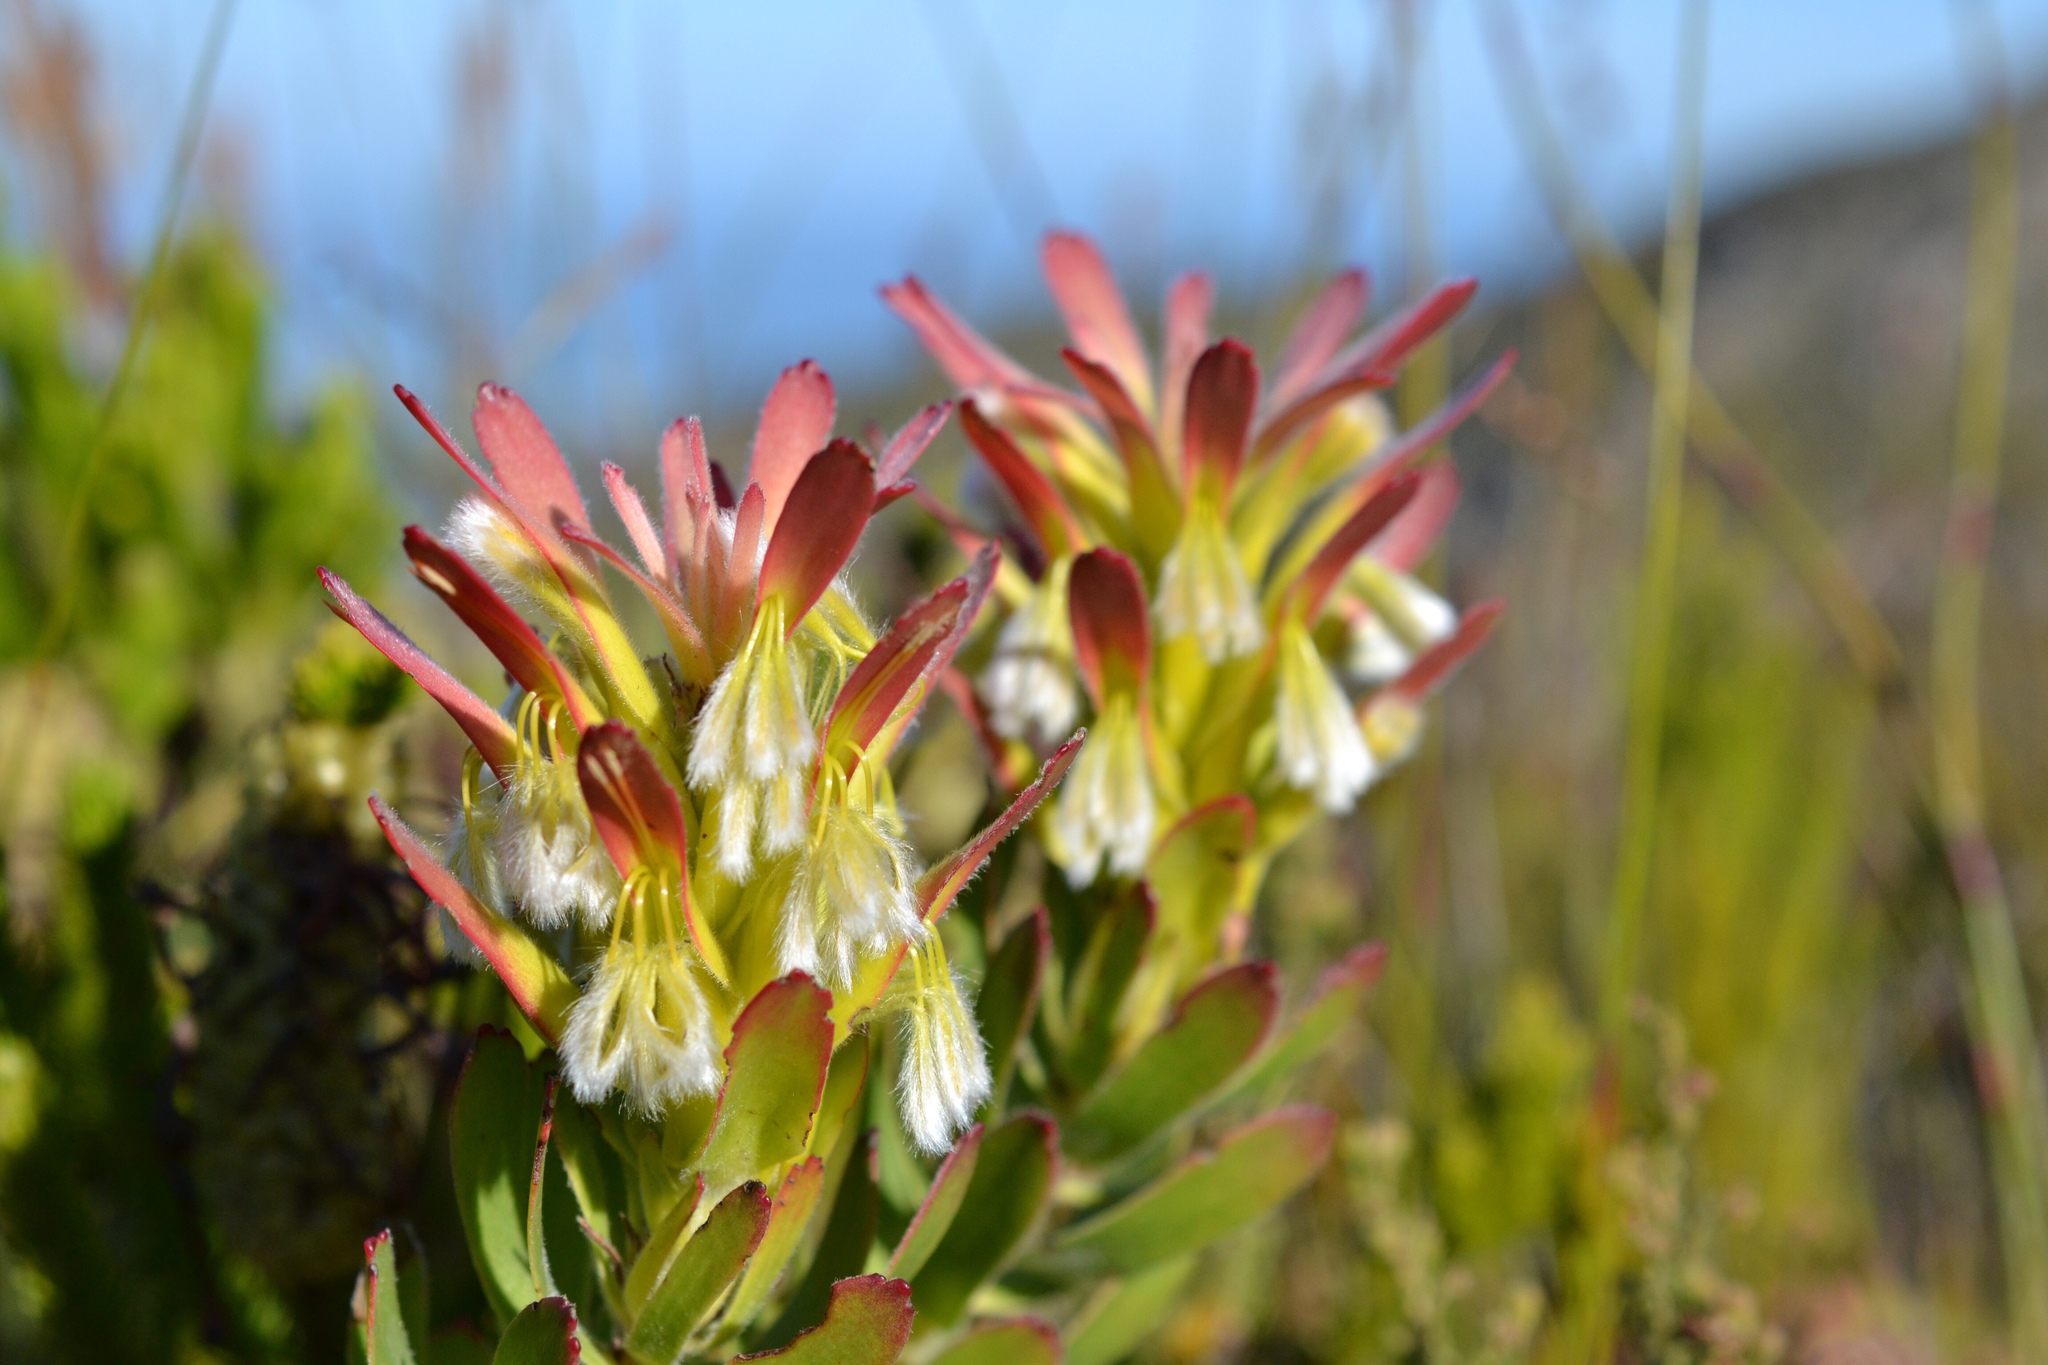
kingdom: Plantae
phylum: Tracheophyta
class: Magnoliopsida
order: Proteales
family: Proteaceae
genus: Mimetes
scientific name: Mimetes cucullatus
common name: Common pagoda
